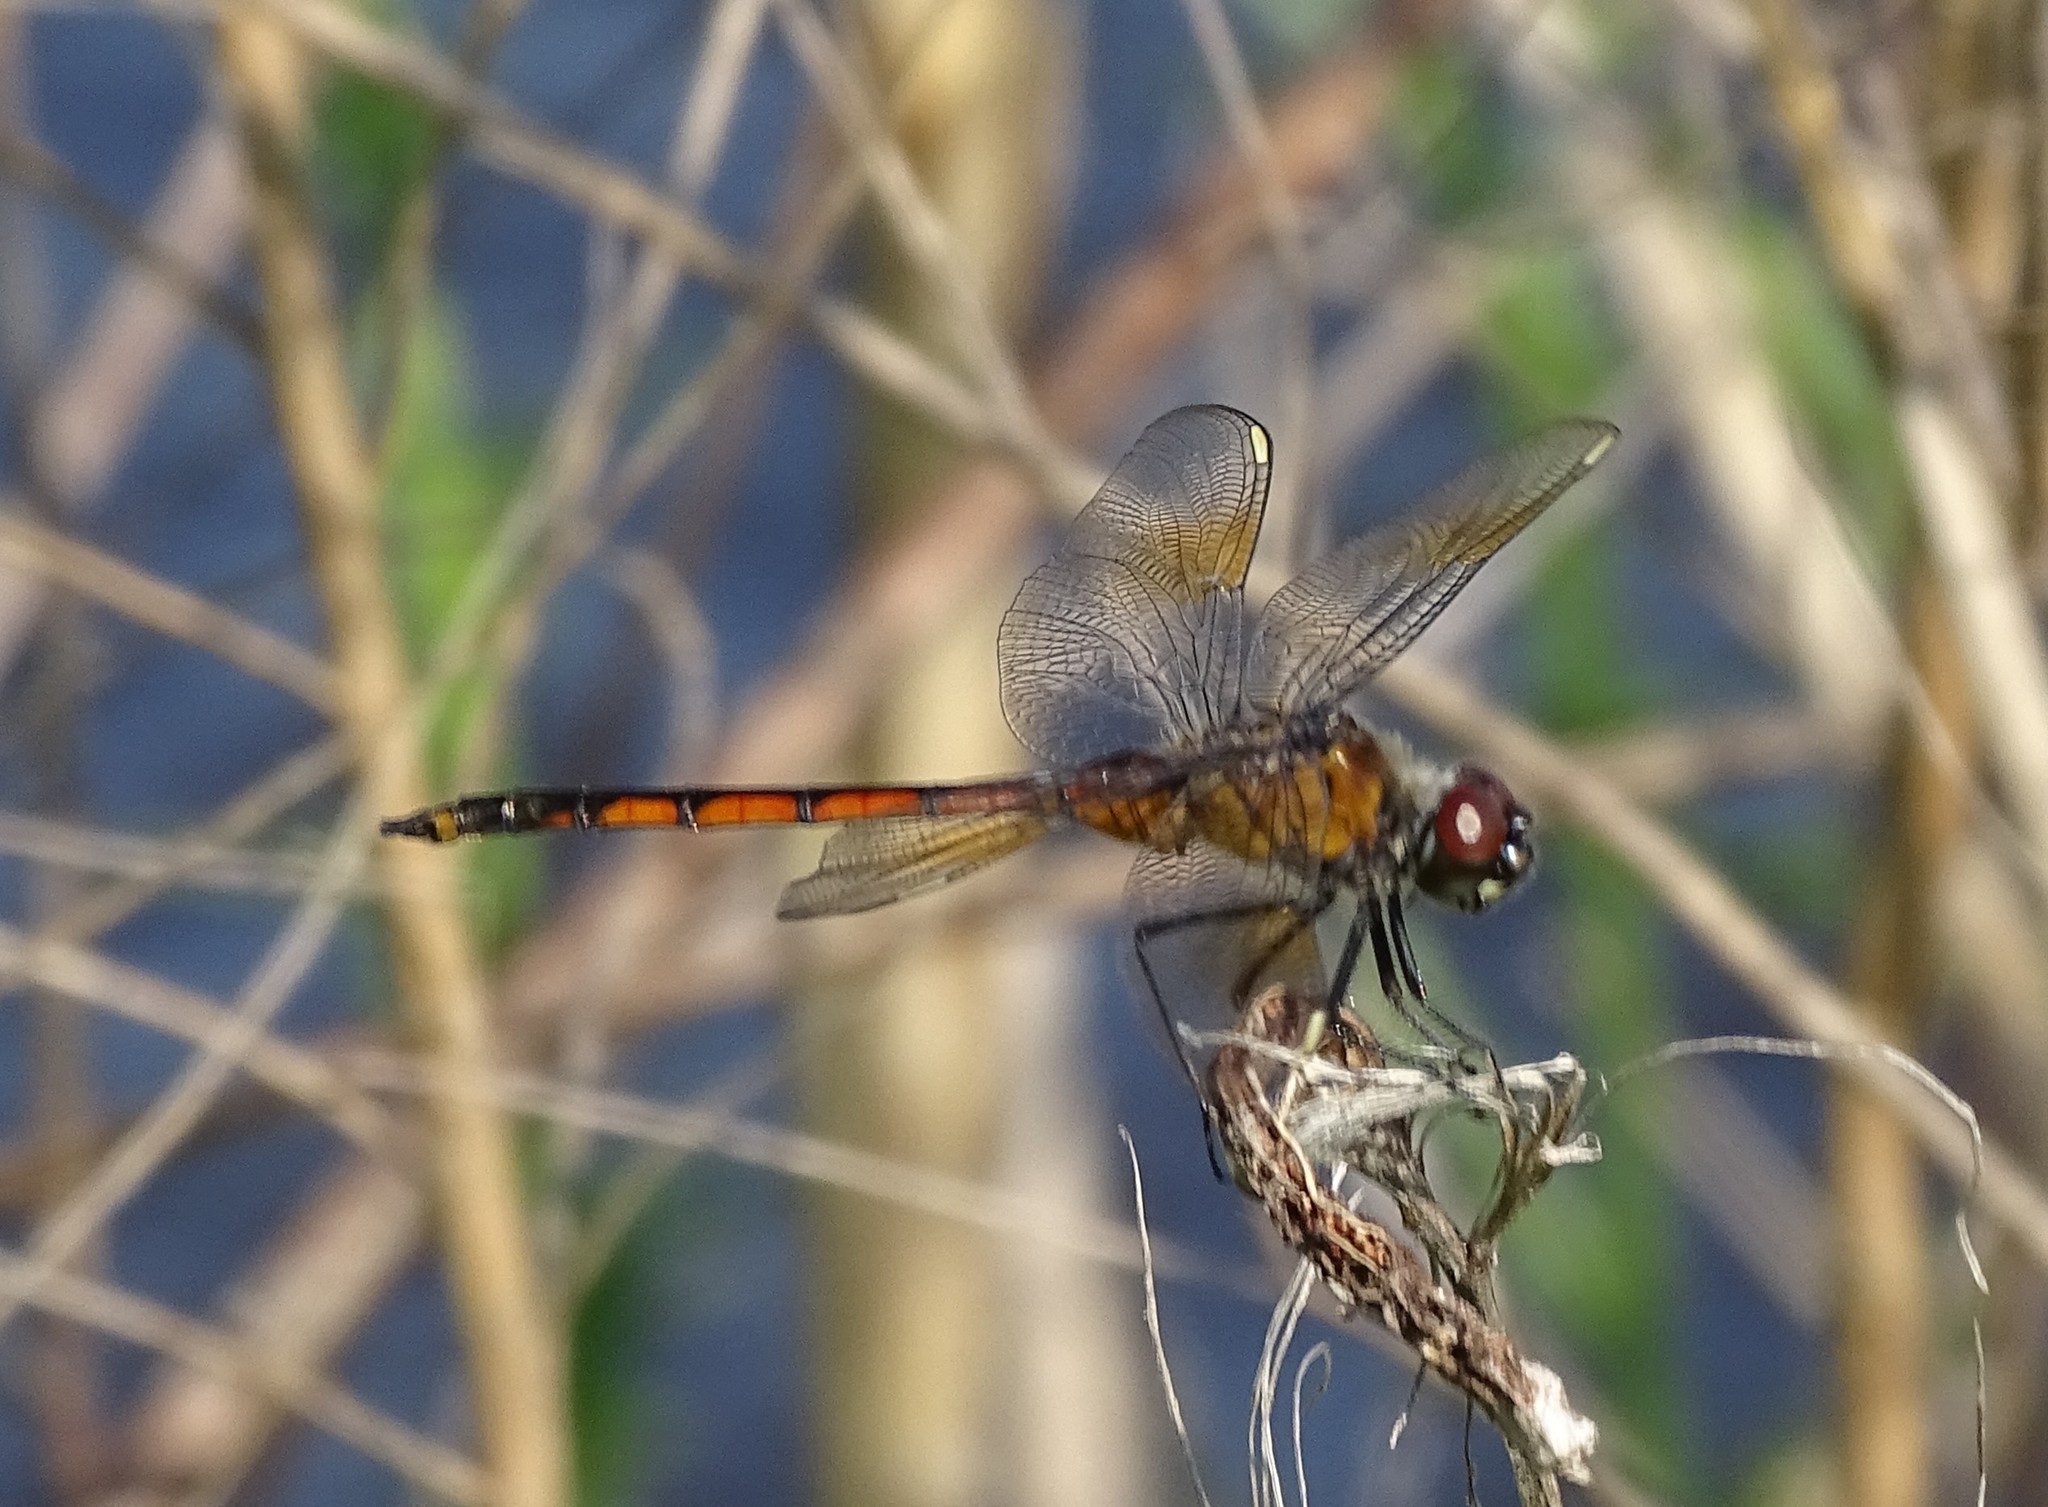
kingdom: Animalia
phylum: Arthropoda
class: Insecta
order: Odonata
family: Libellulidae
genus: Brachymesia
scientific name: Brachymesia gravida
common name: Four-spotted pennant
